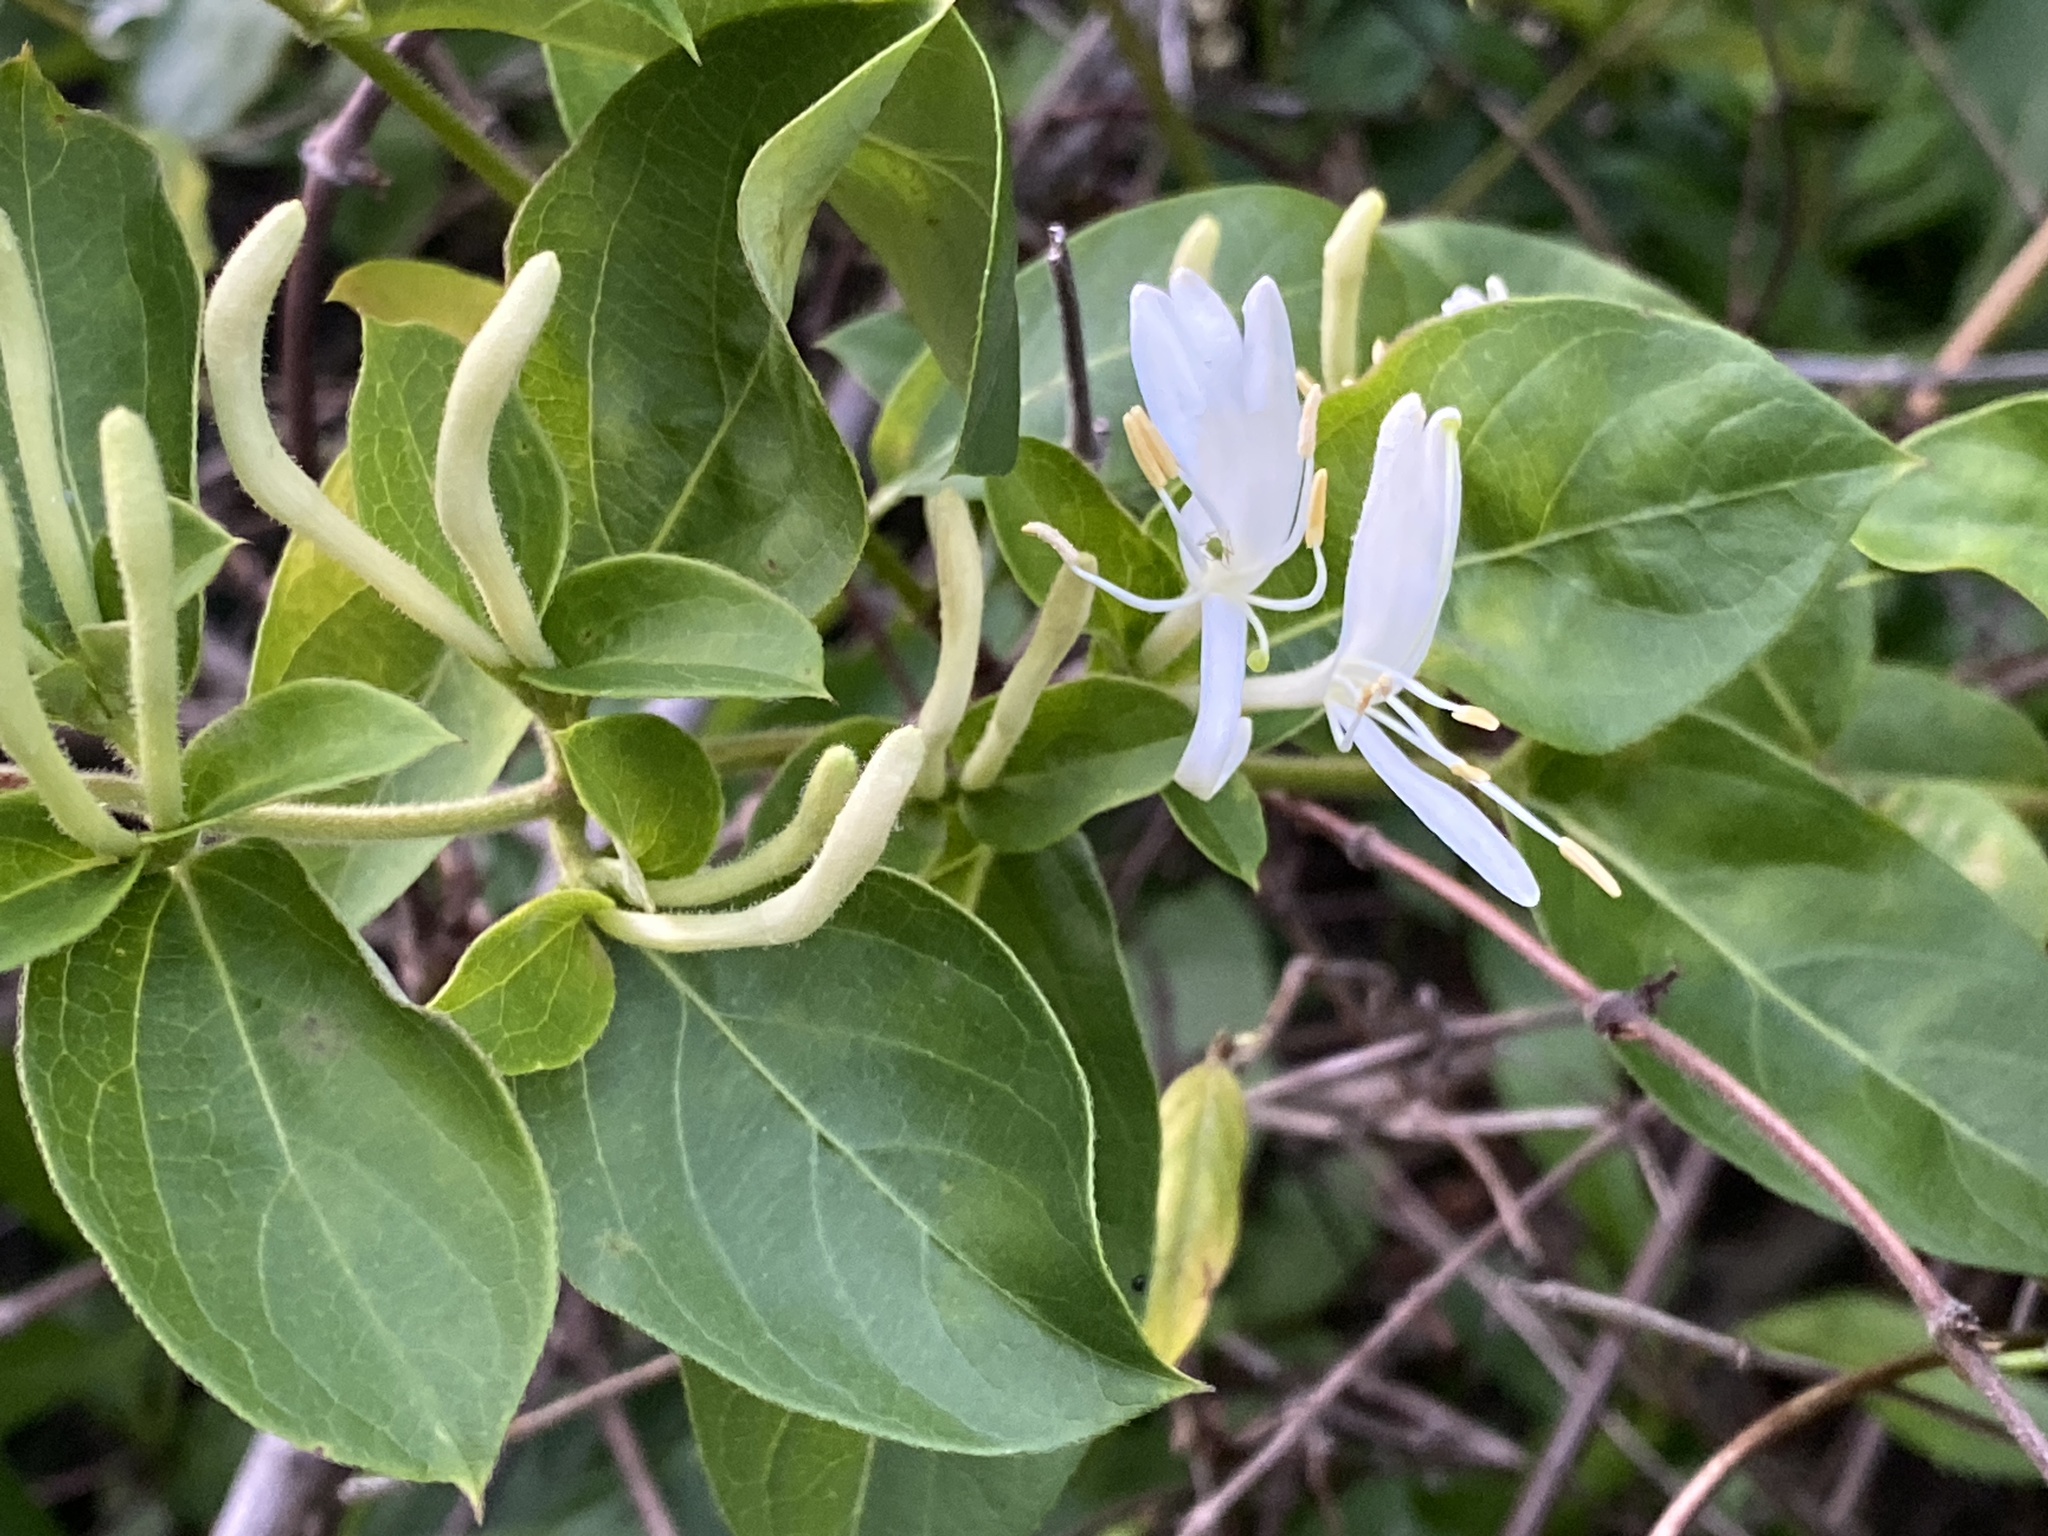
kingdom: Plantae
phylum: Tracheophyta
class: Magnoliopsida
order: Dipsacales
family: Caprifoliaceae
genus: Lonicera
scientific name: Lonicera japonica
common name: Japanese honeysuckle
